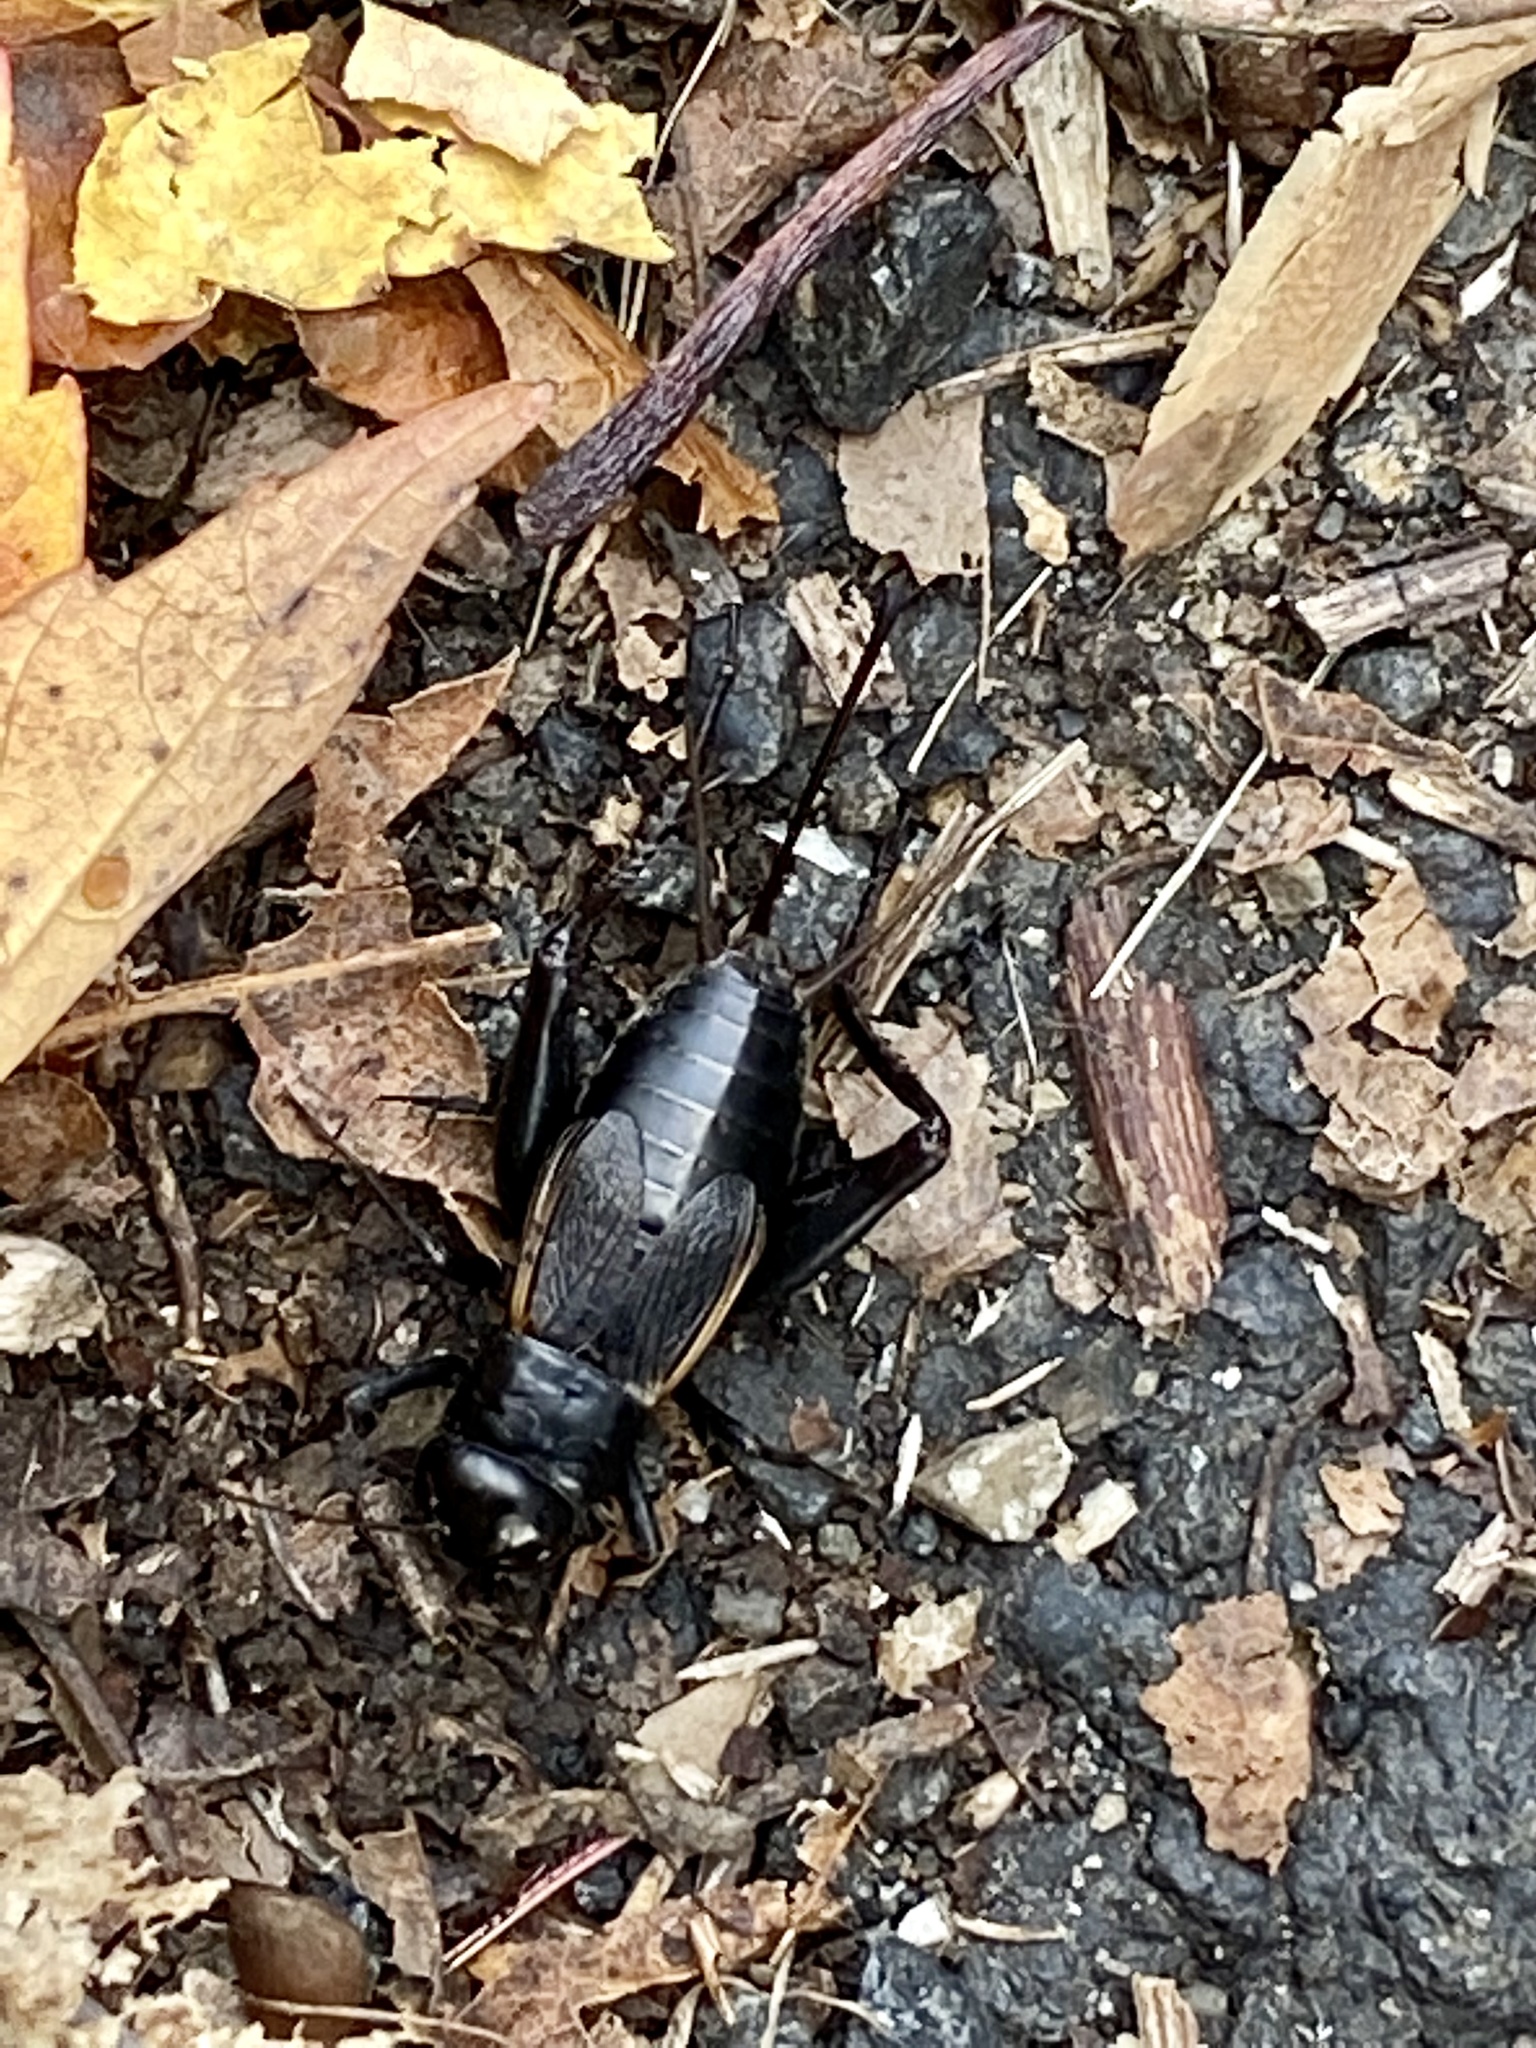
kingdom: Animalia
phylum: Arthropoda
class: Insecta
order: Orthoptera
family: Gryllidae
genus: Gryllus
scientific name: Gryllus pennsylvanicus
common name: Fall field cricket
